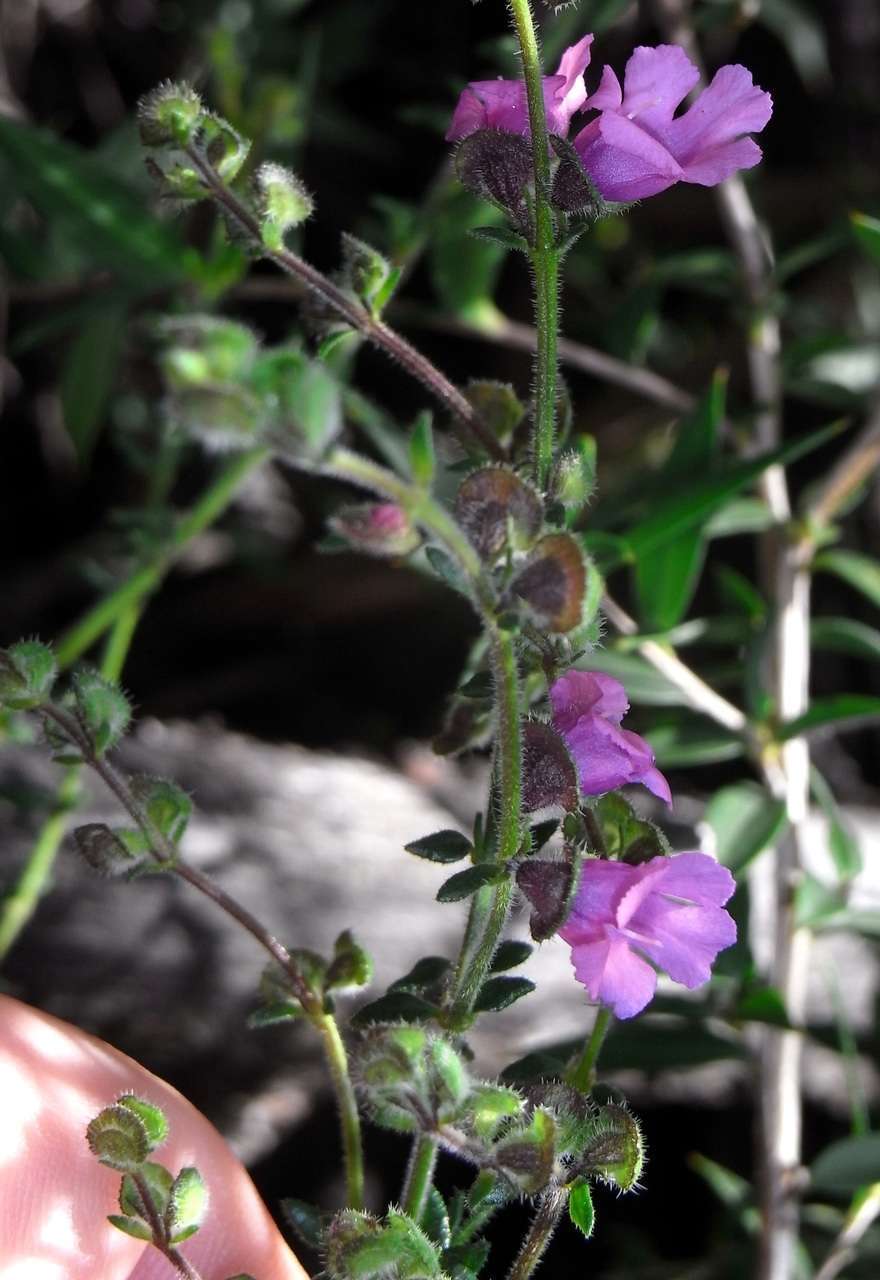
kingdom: Plantae
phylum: Tracheophyta
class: Magnoliopsida
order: Lamiales
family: Lamiaceae
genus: Prostanthera
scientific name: Prostanthera hirtula
